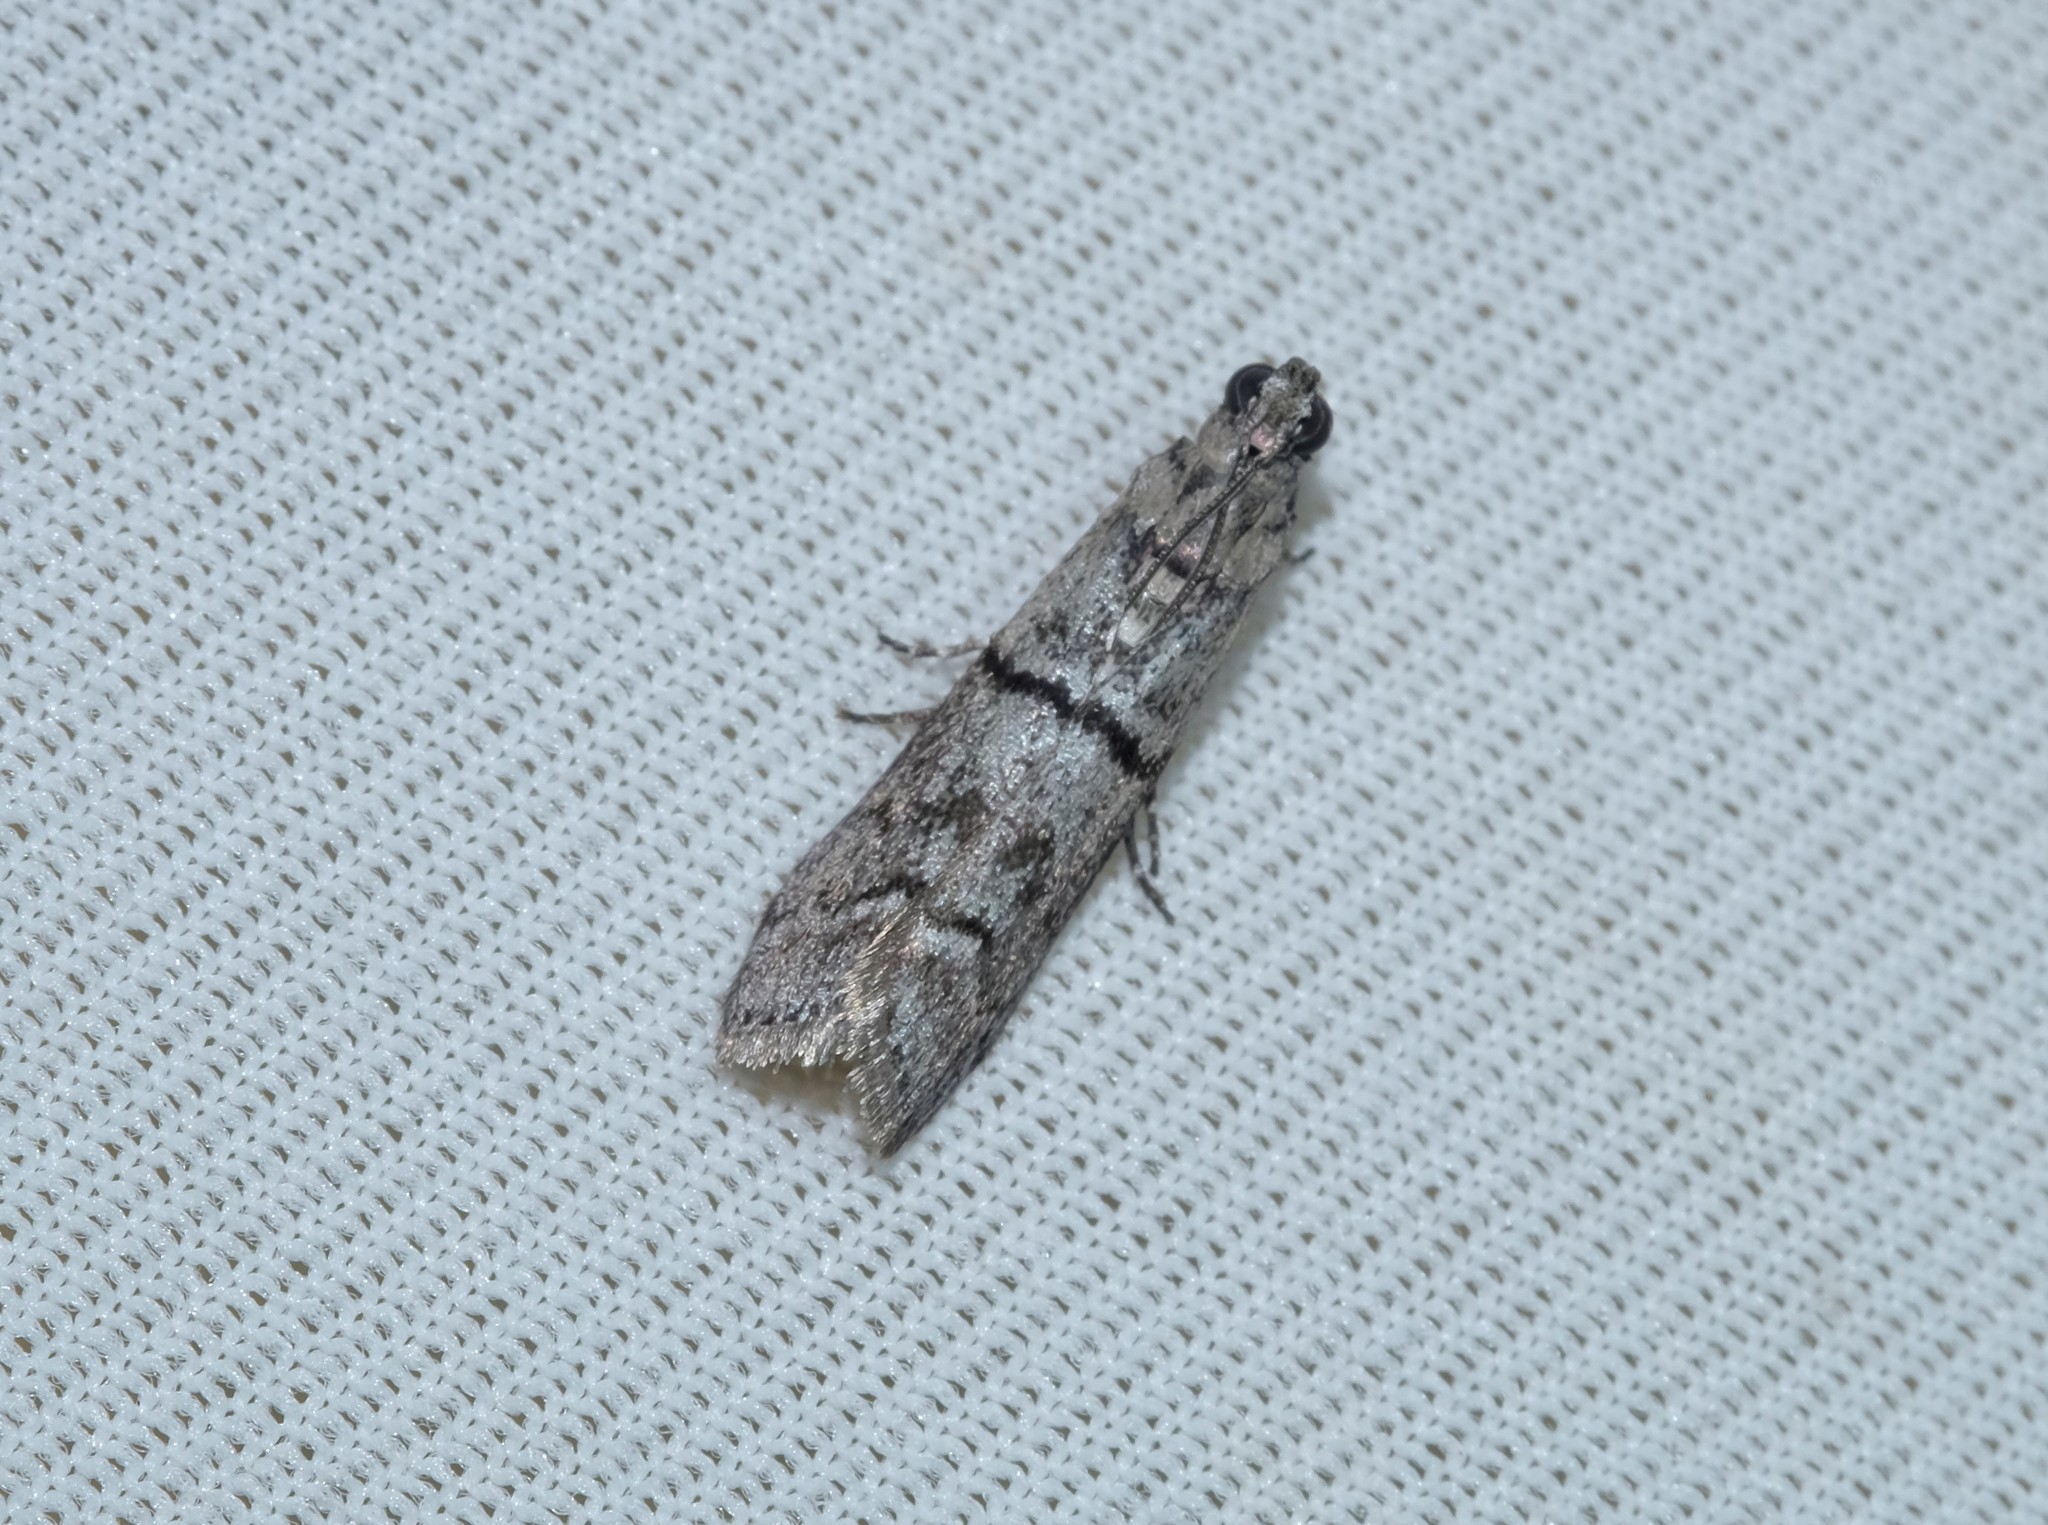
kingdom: Animalia
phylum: Arthropoda
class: Insecta
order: Lepidoptera
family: Pyralidae
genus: Cryptoblabes
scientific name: Cryptoblabes euraphella
